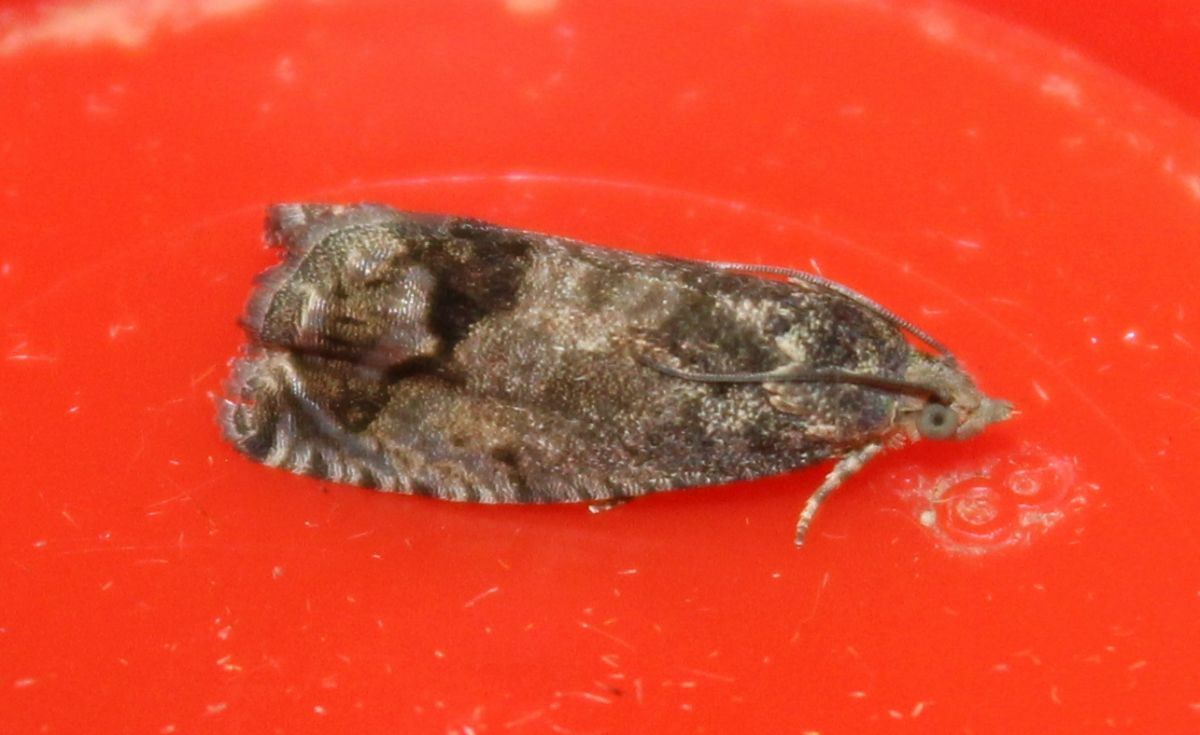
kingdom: Animalia
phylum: Arthropoda
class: Insecta
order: Lepidoptera
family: Tortricidae
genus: Cydia
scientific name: Cydia splendana
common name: De: kastanienwickler, eichenwickler es: oruga de la castaña fr: carpocapse des châtaignes it: cidia o tortrice tardiva delle castagne pt: bichado das castanhas gb: acorn moth, chestnut fruit tortrix
